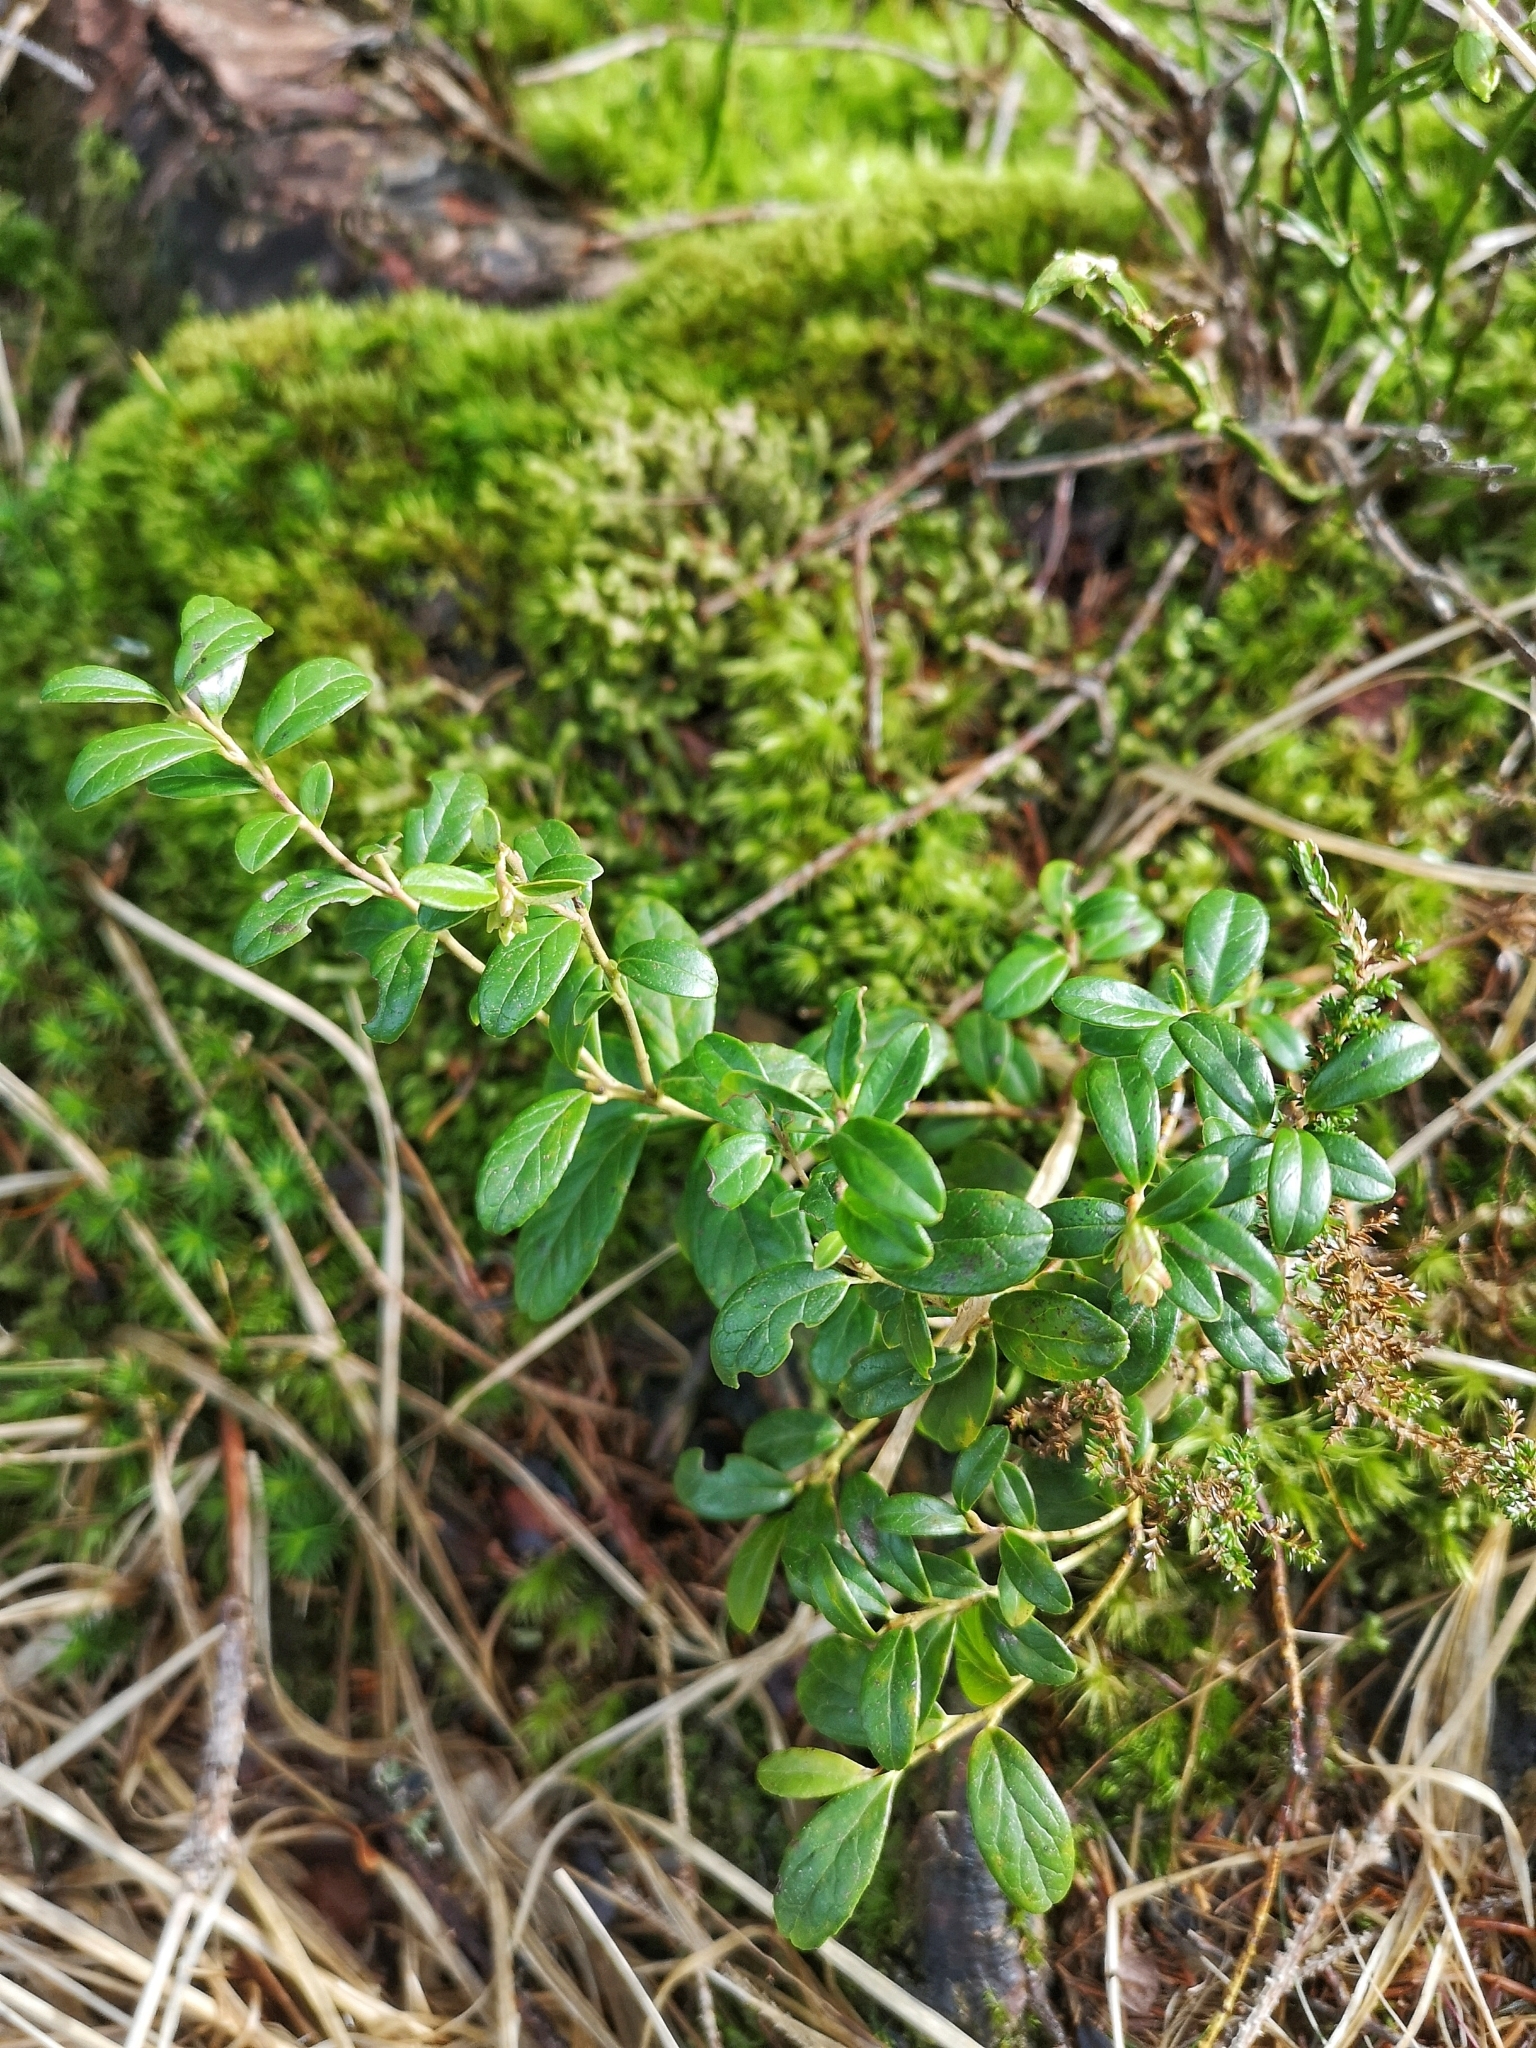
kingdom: Plantae
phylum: Tracheophyta
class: Magnoliopsida
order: Ericales
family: Ericaceae
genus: Vaccinium
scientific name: Vaccinium vitis-idaea
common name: Cowberry
